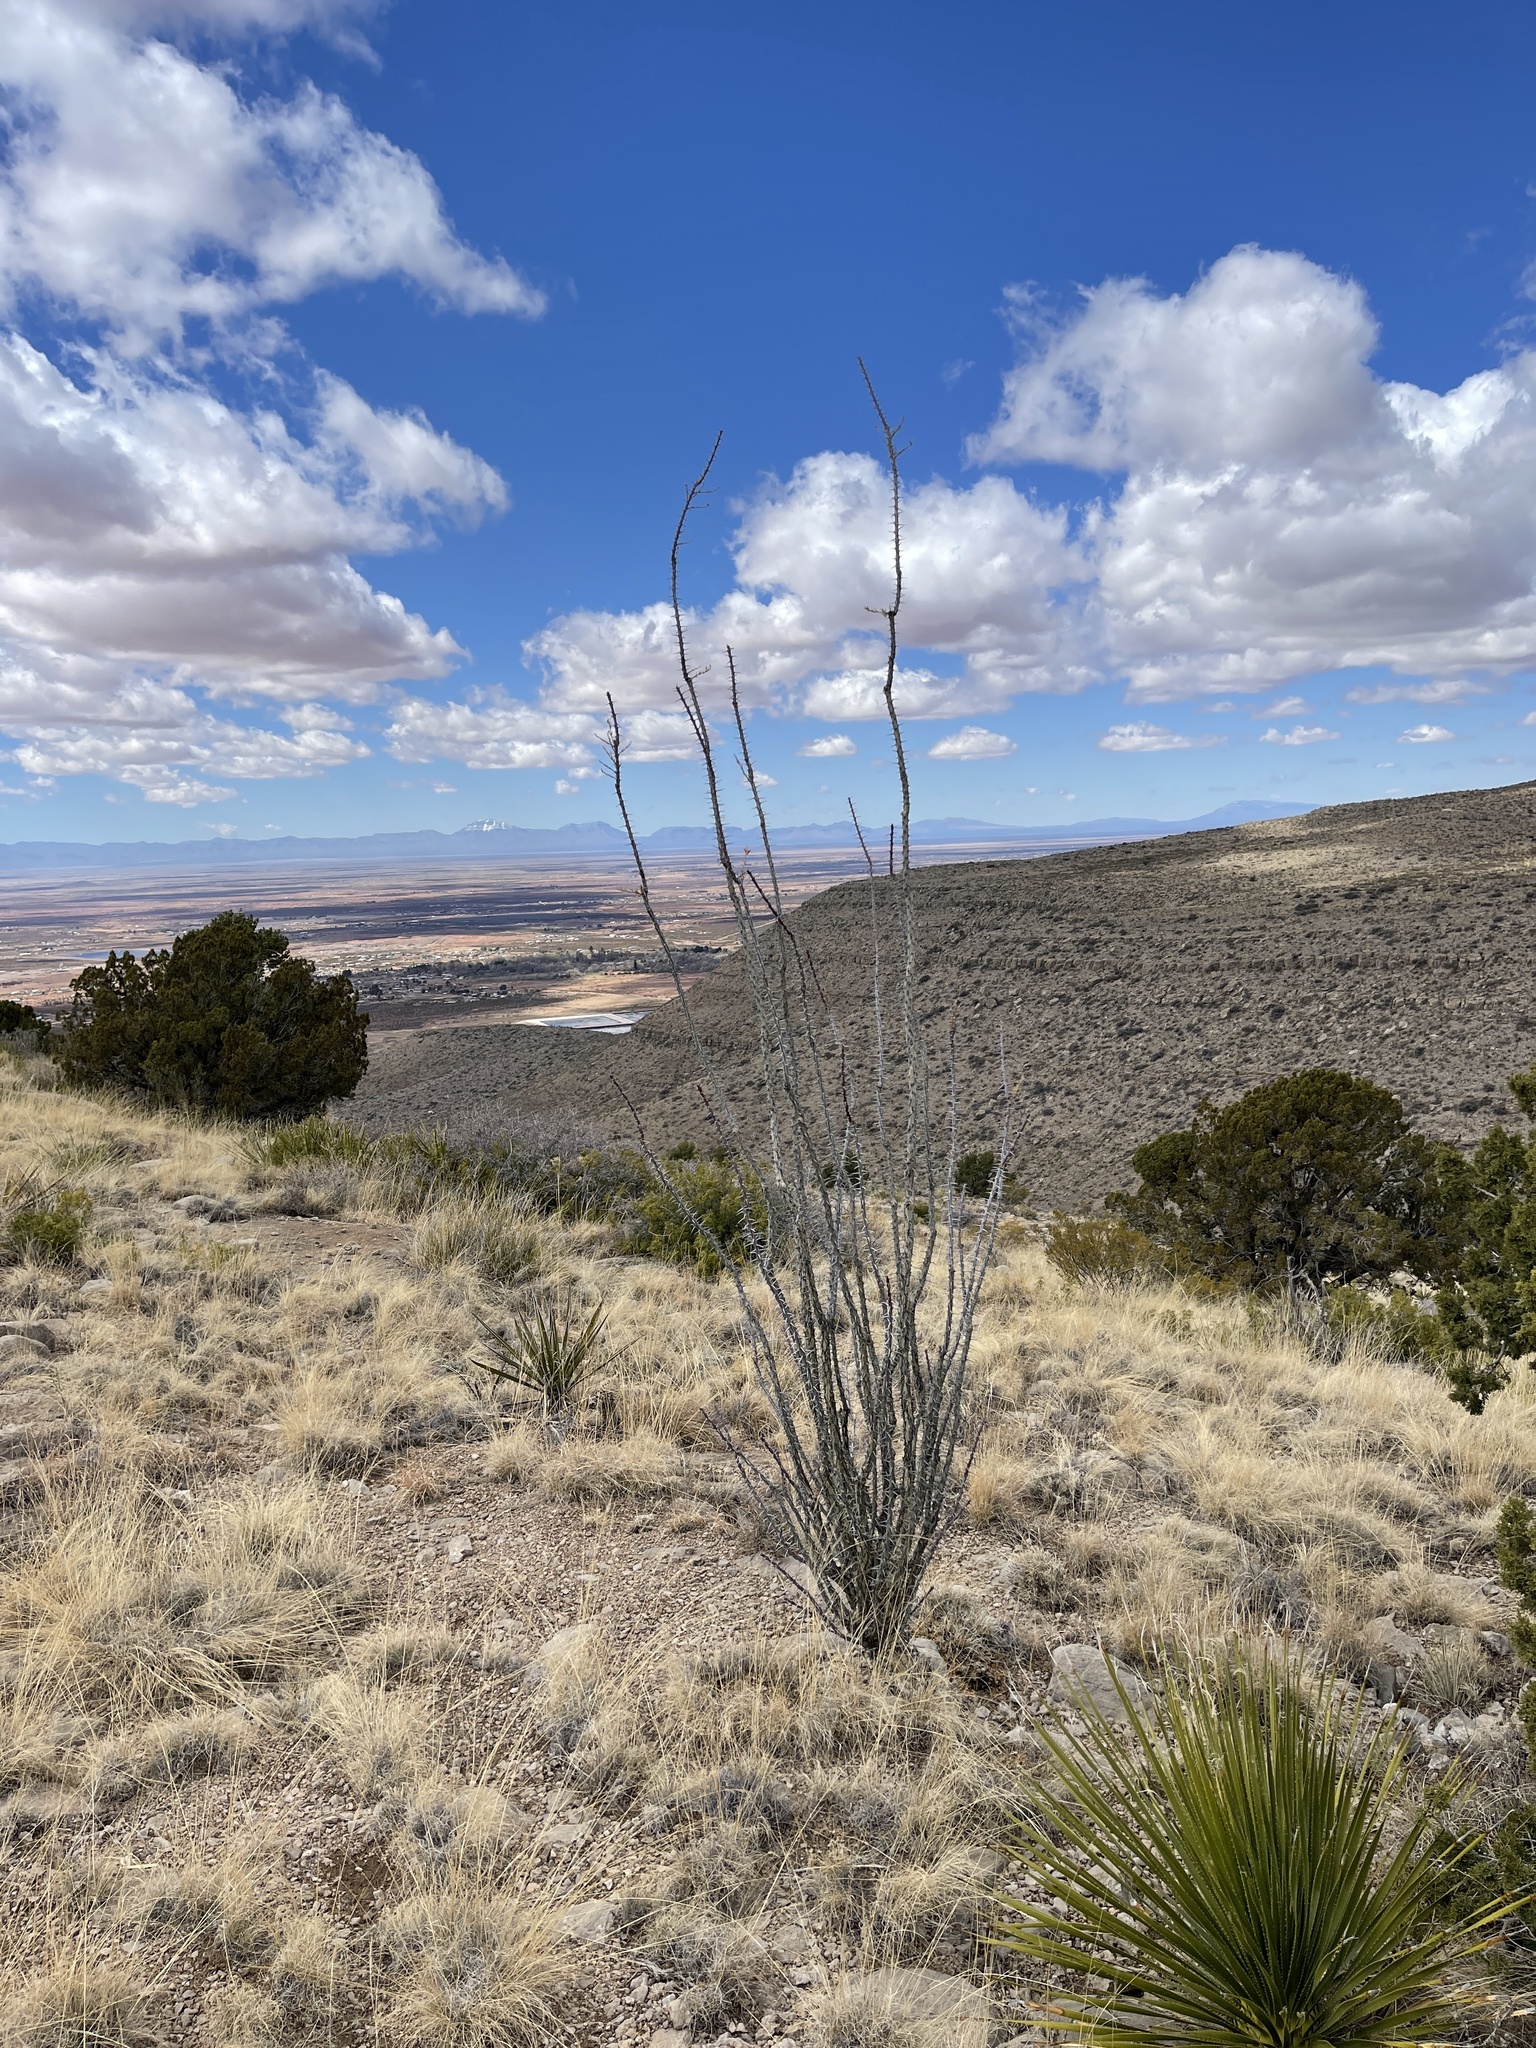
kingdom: Plantae
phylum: Tracheophyta
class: Magnoliopsida
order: Ericales
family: Fouquieriaceae
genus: Fouquieria
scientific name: Fouquieria splendens
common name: Vine-cactus
